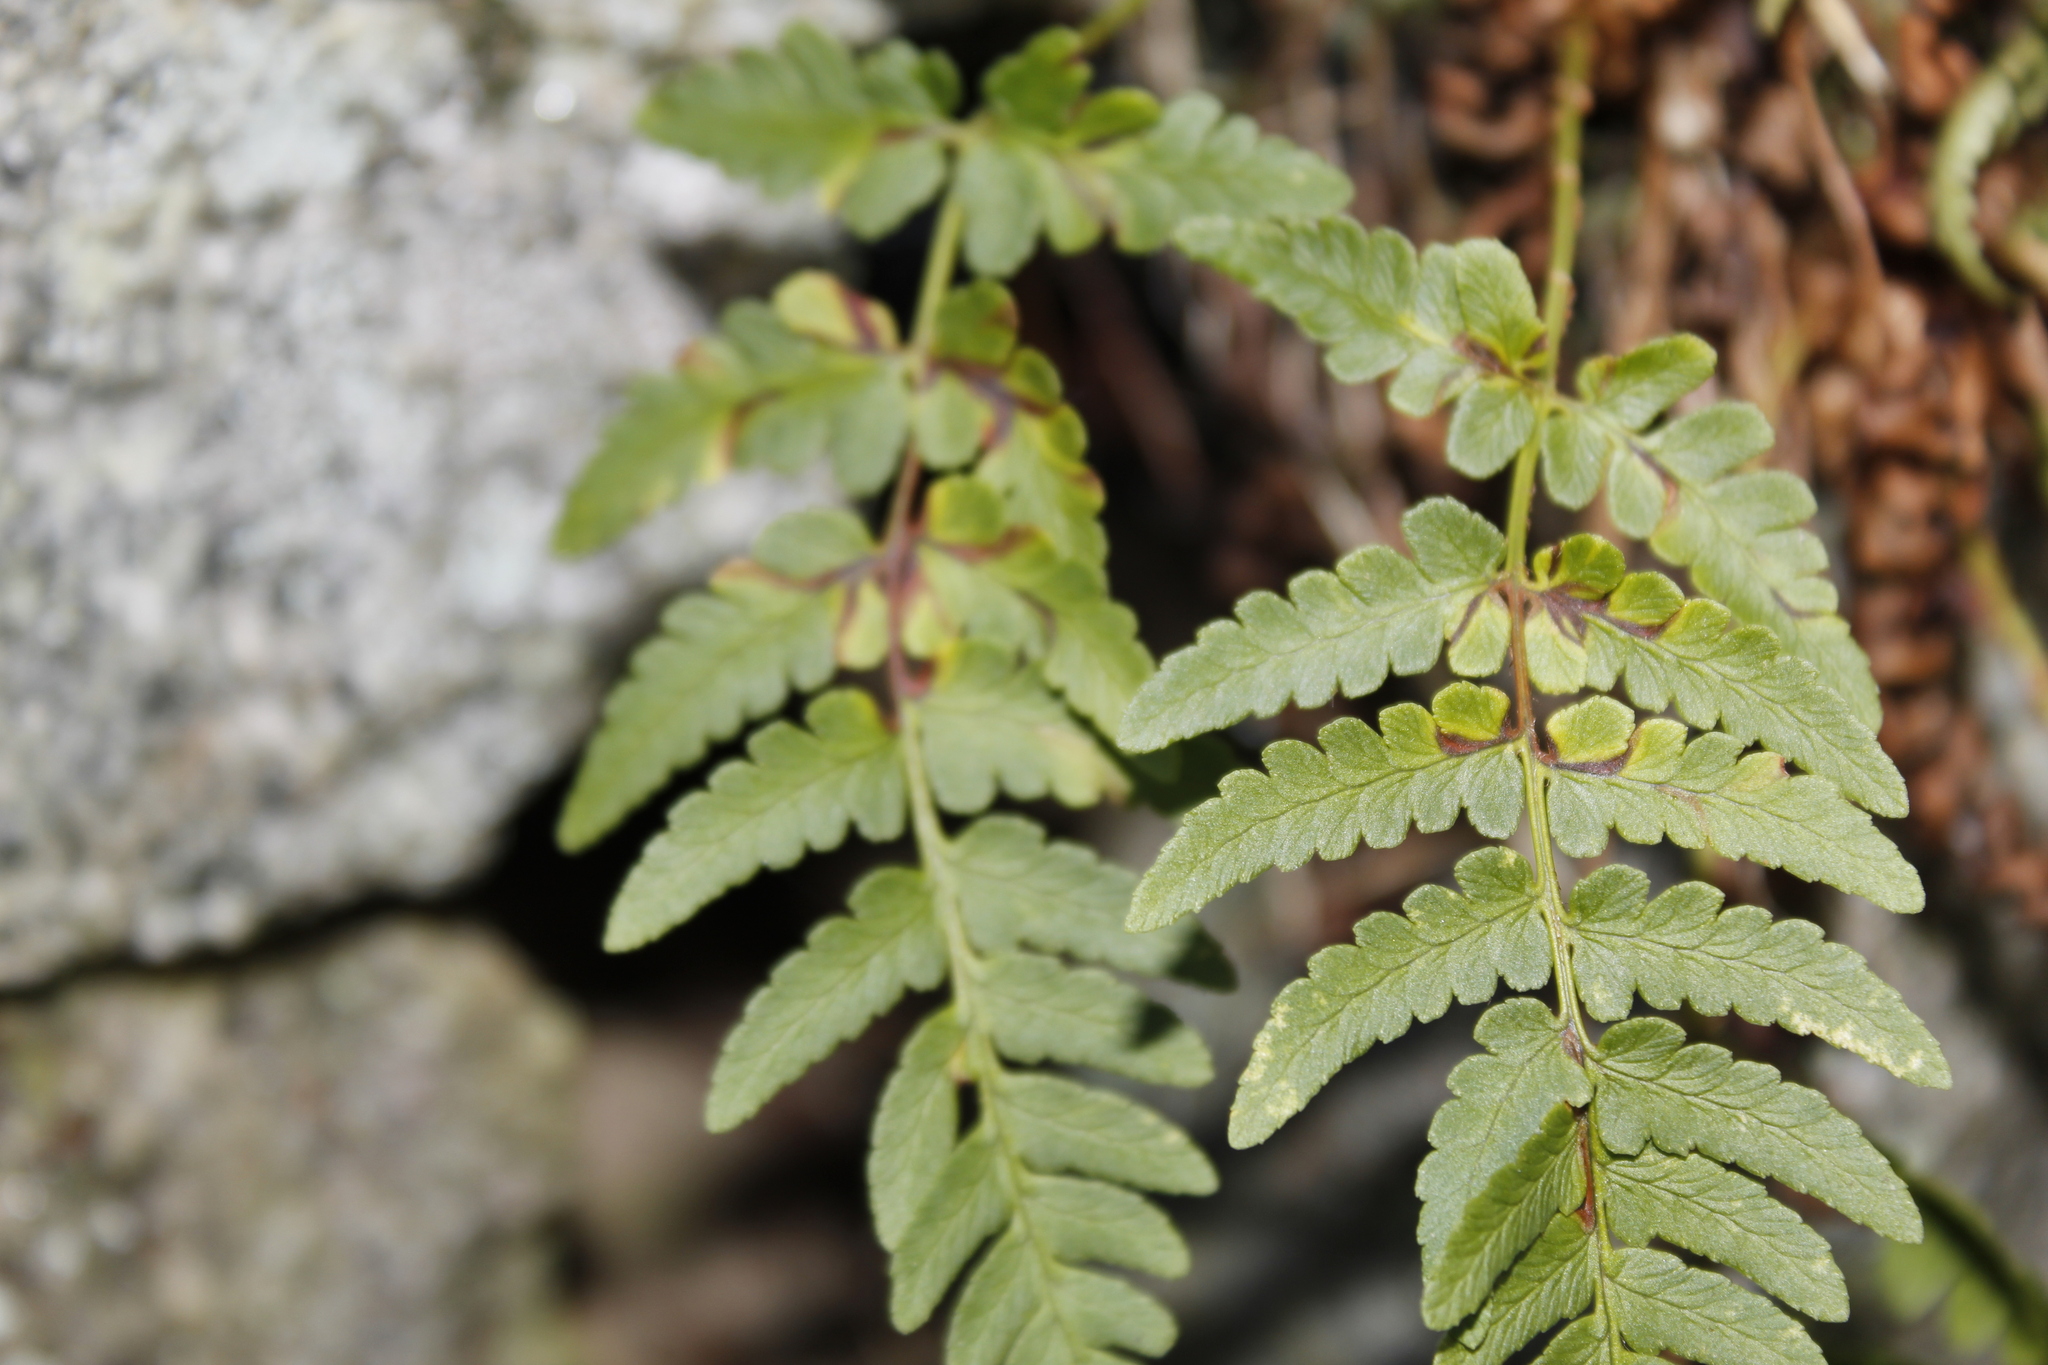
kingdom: Plantae
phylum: Tracheophyta
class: Polypodiopsida
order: Polypodiales
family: Dryopteridaceae
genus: Dryopteris
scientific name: Dryopteris marginalis
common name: Marginal wood fern
